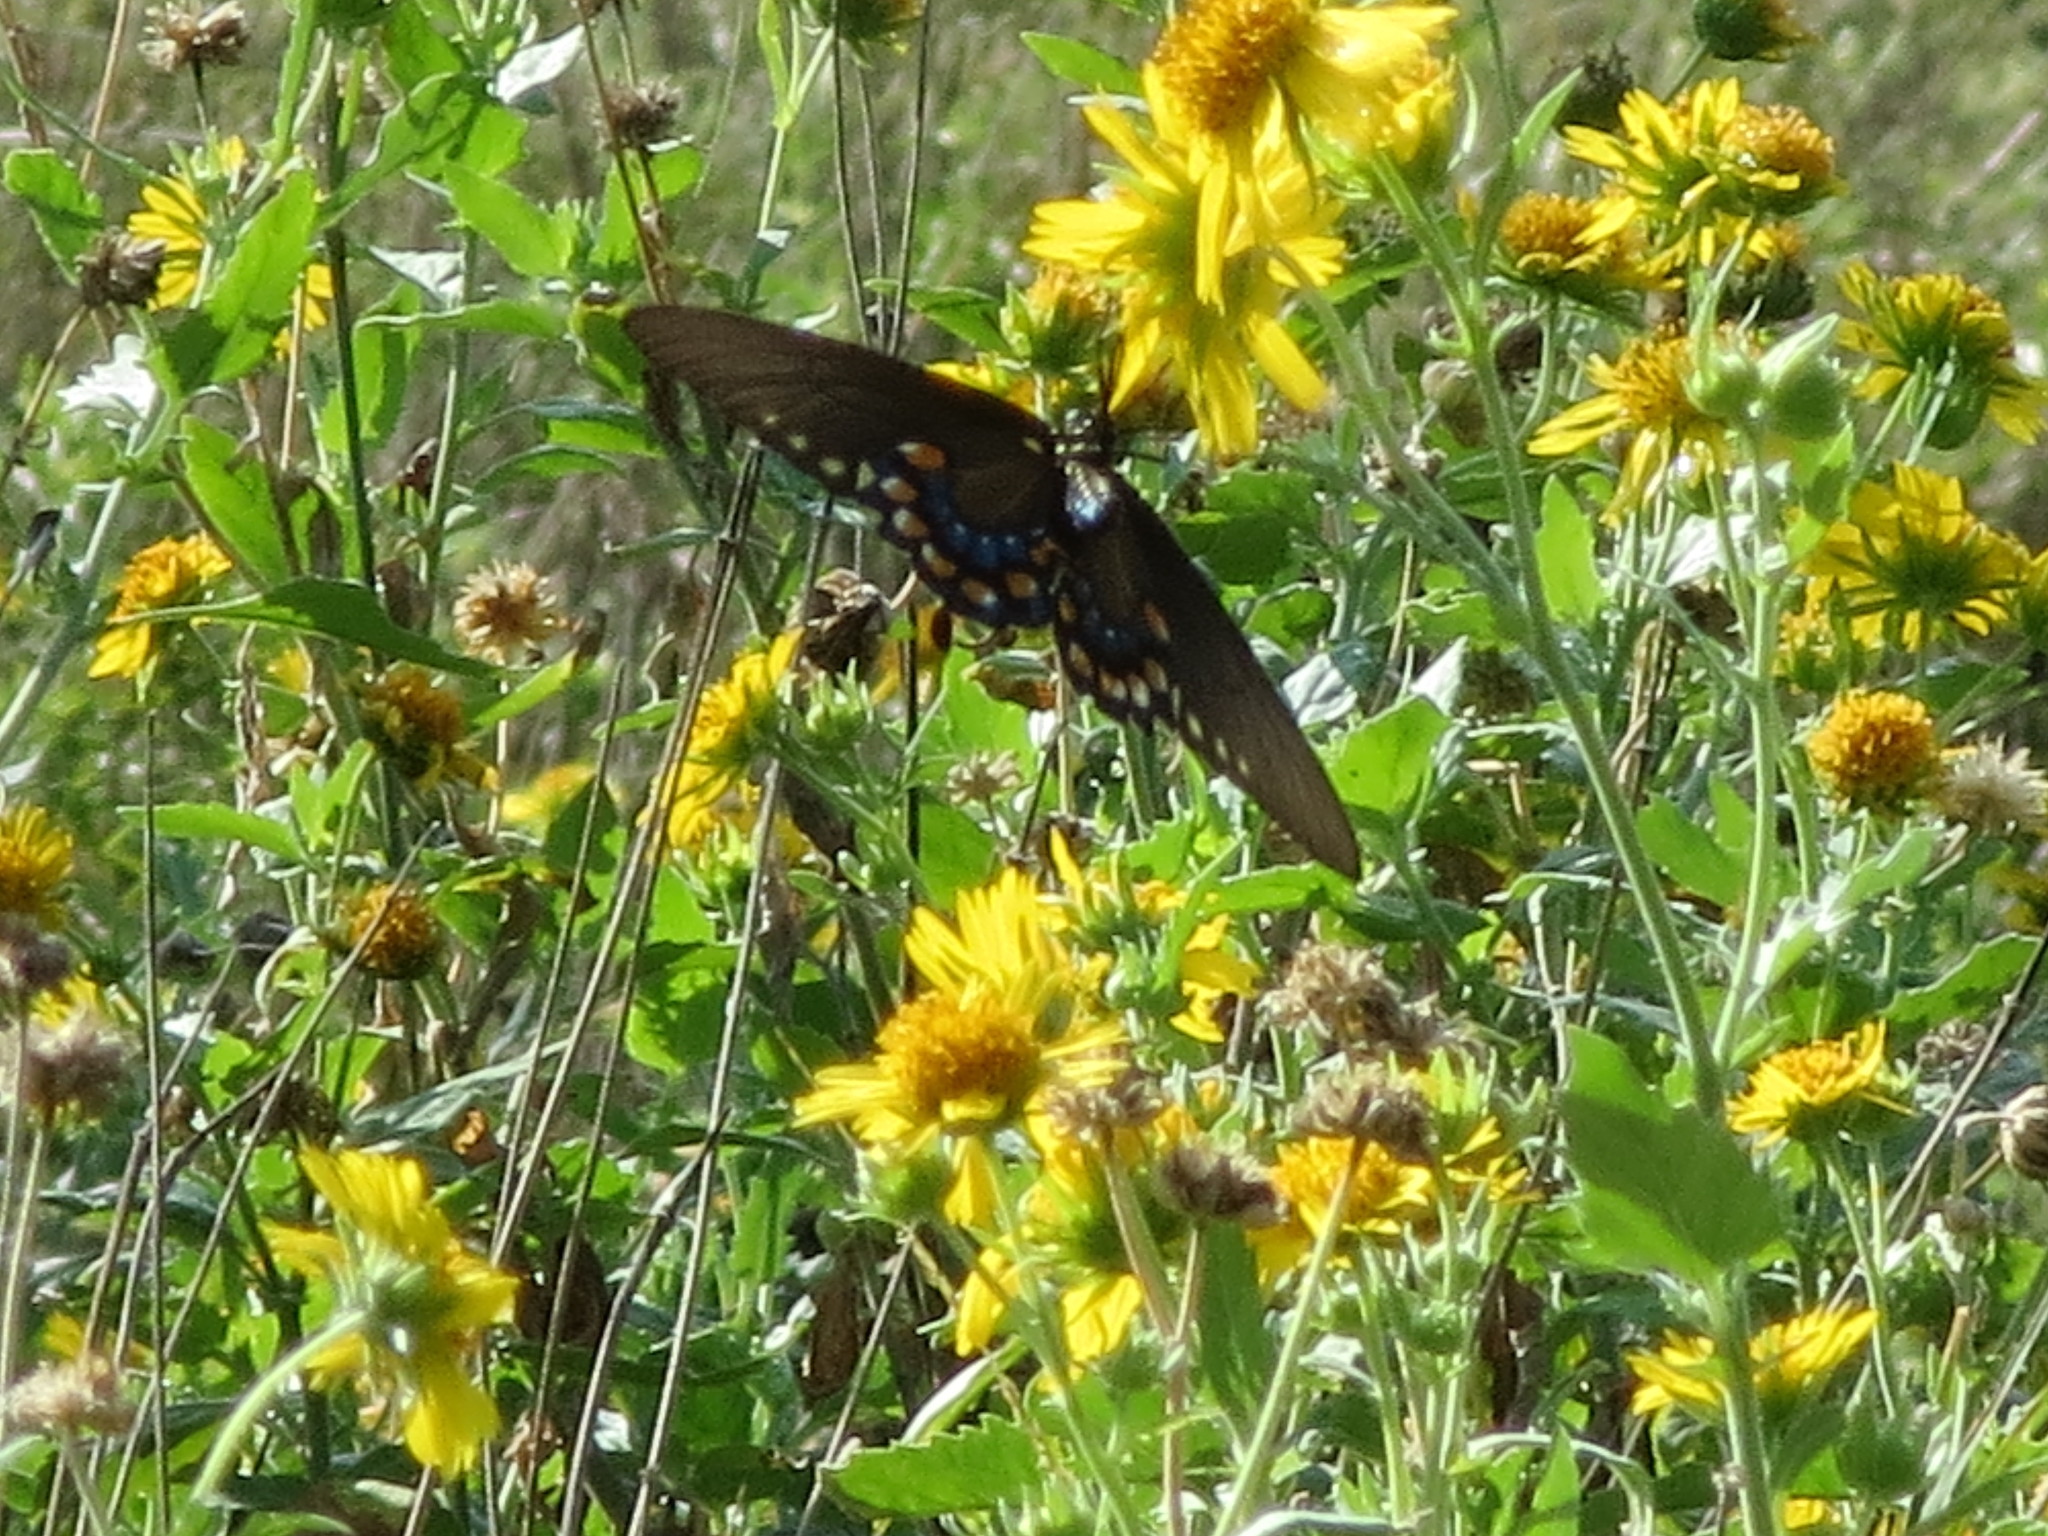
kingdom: Animalia
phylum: Arthropoda
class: Insecta
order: Lepidoptera
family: Papilionidae
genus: Battus
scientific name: Battus philenor
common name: Pipevine swallowtail
